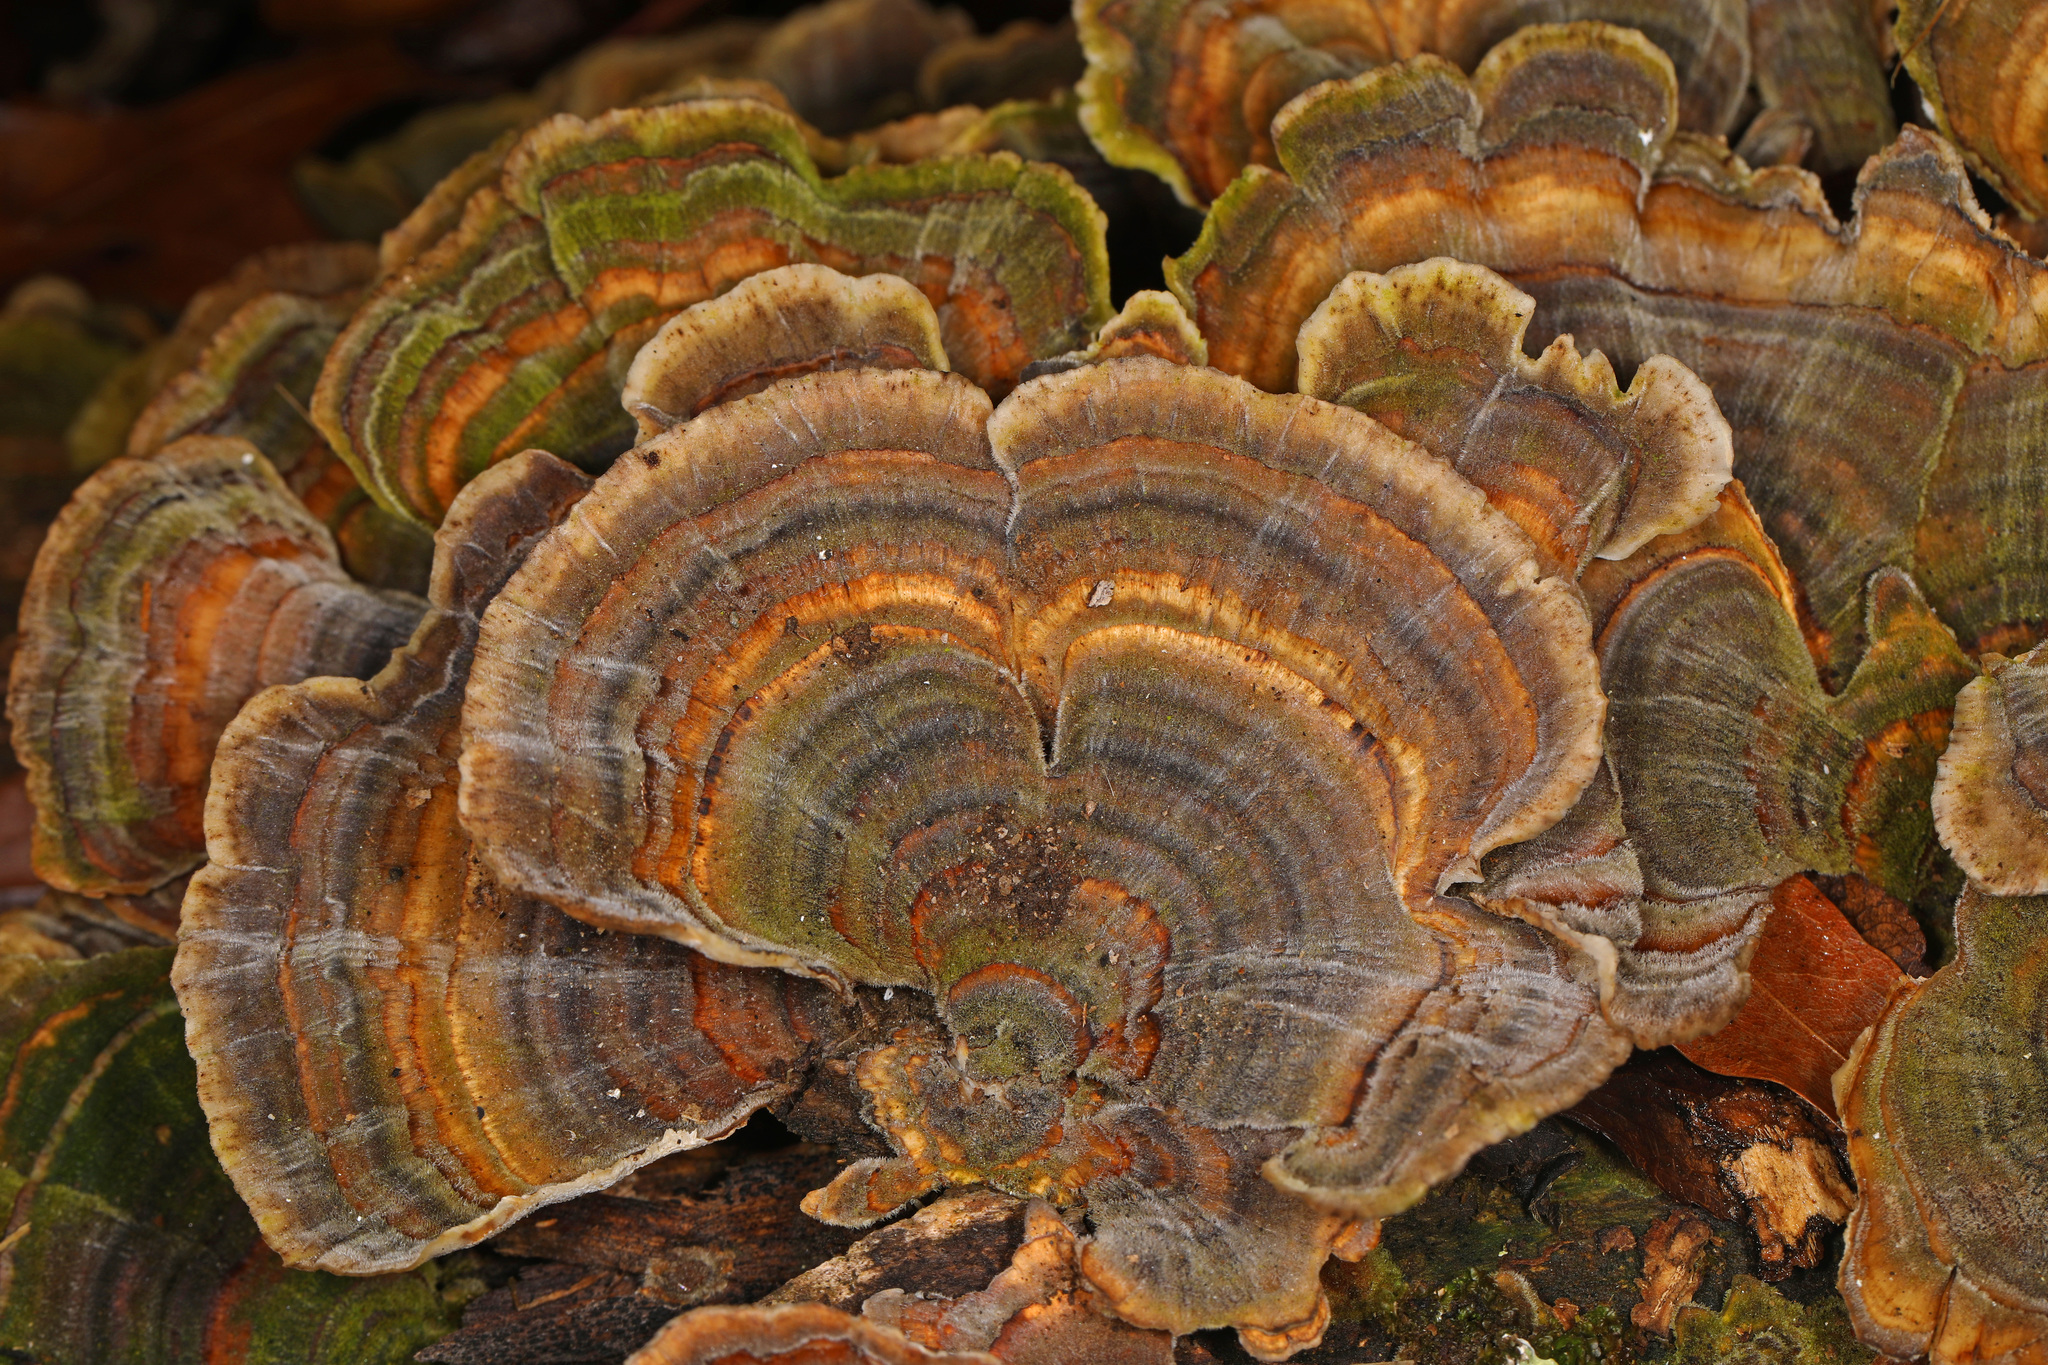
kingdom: Fungi
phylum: Basidiomycota
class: Agaricomycetes
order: Polyporales
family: Polyporaceae
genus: Trametes
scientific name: Trametes versicolor
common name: Turkeytail
